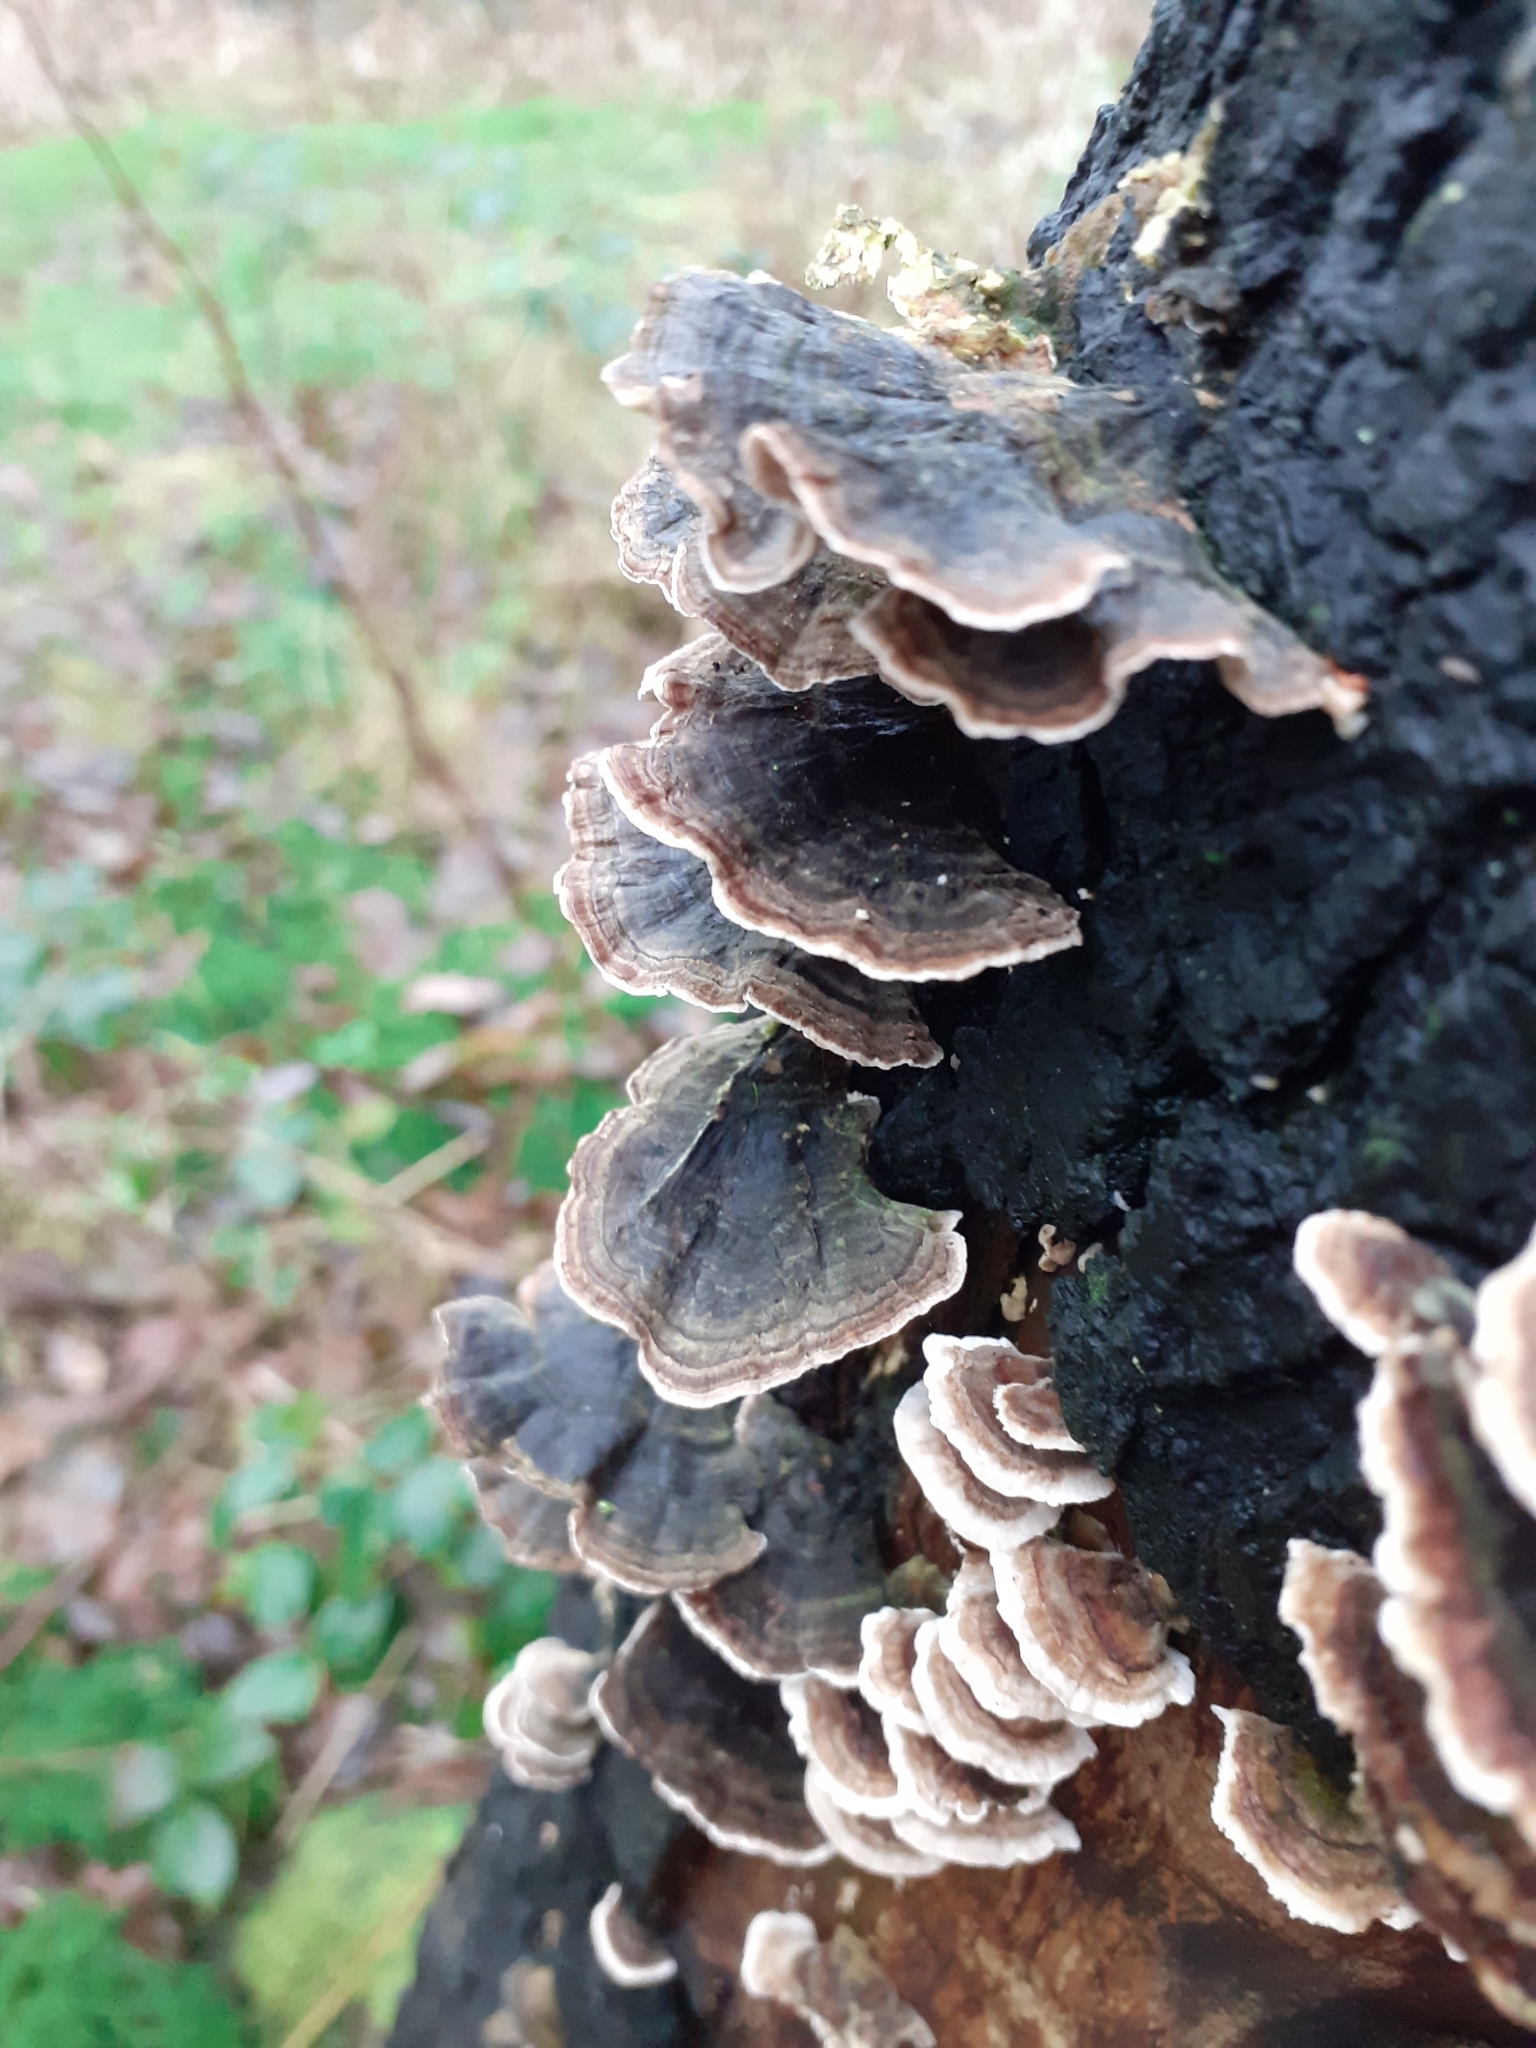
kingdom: Fungi
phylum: Basidiomycota
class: Agaricomycetes
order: Polyporales
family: Polyporaceae
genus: Trametes
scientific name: Trametes versicolor
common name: Turkeytail
